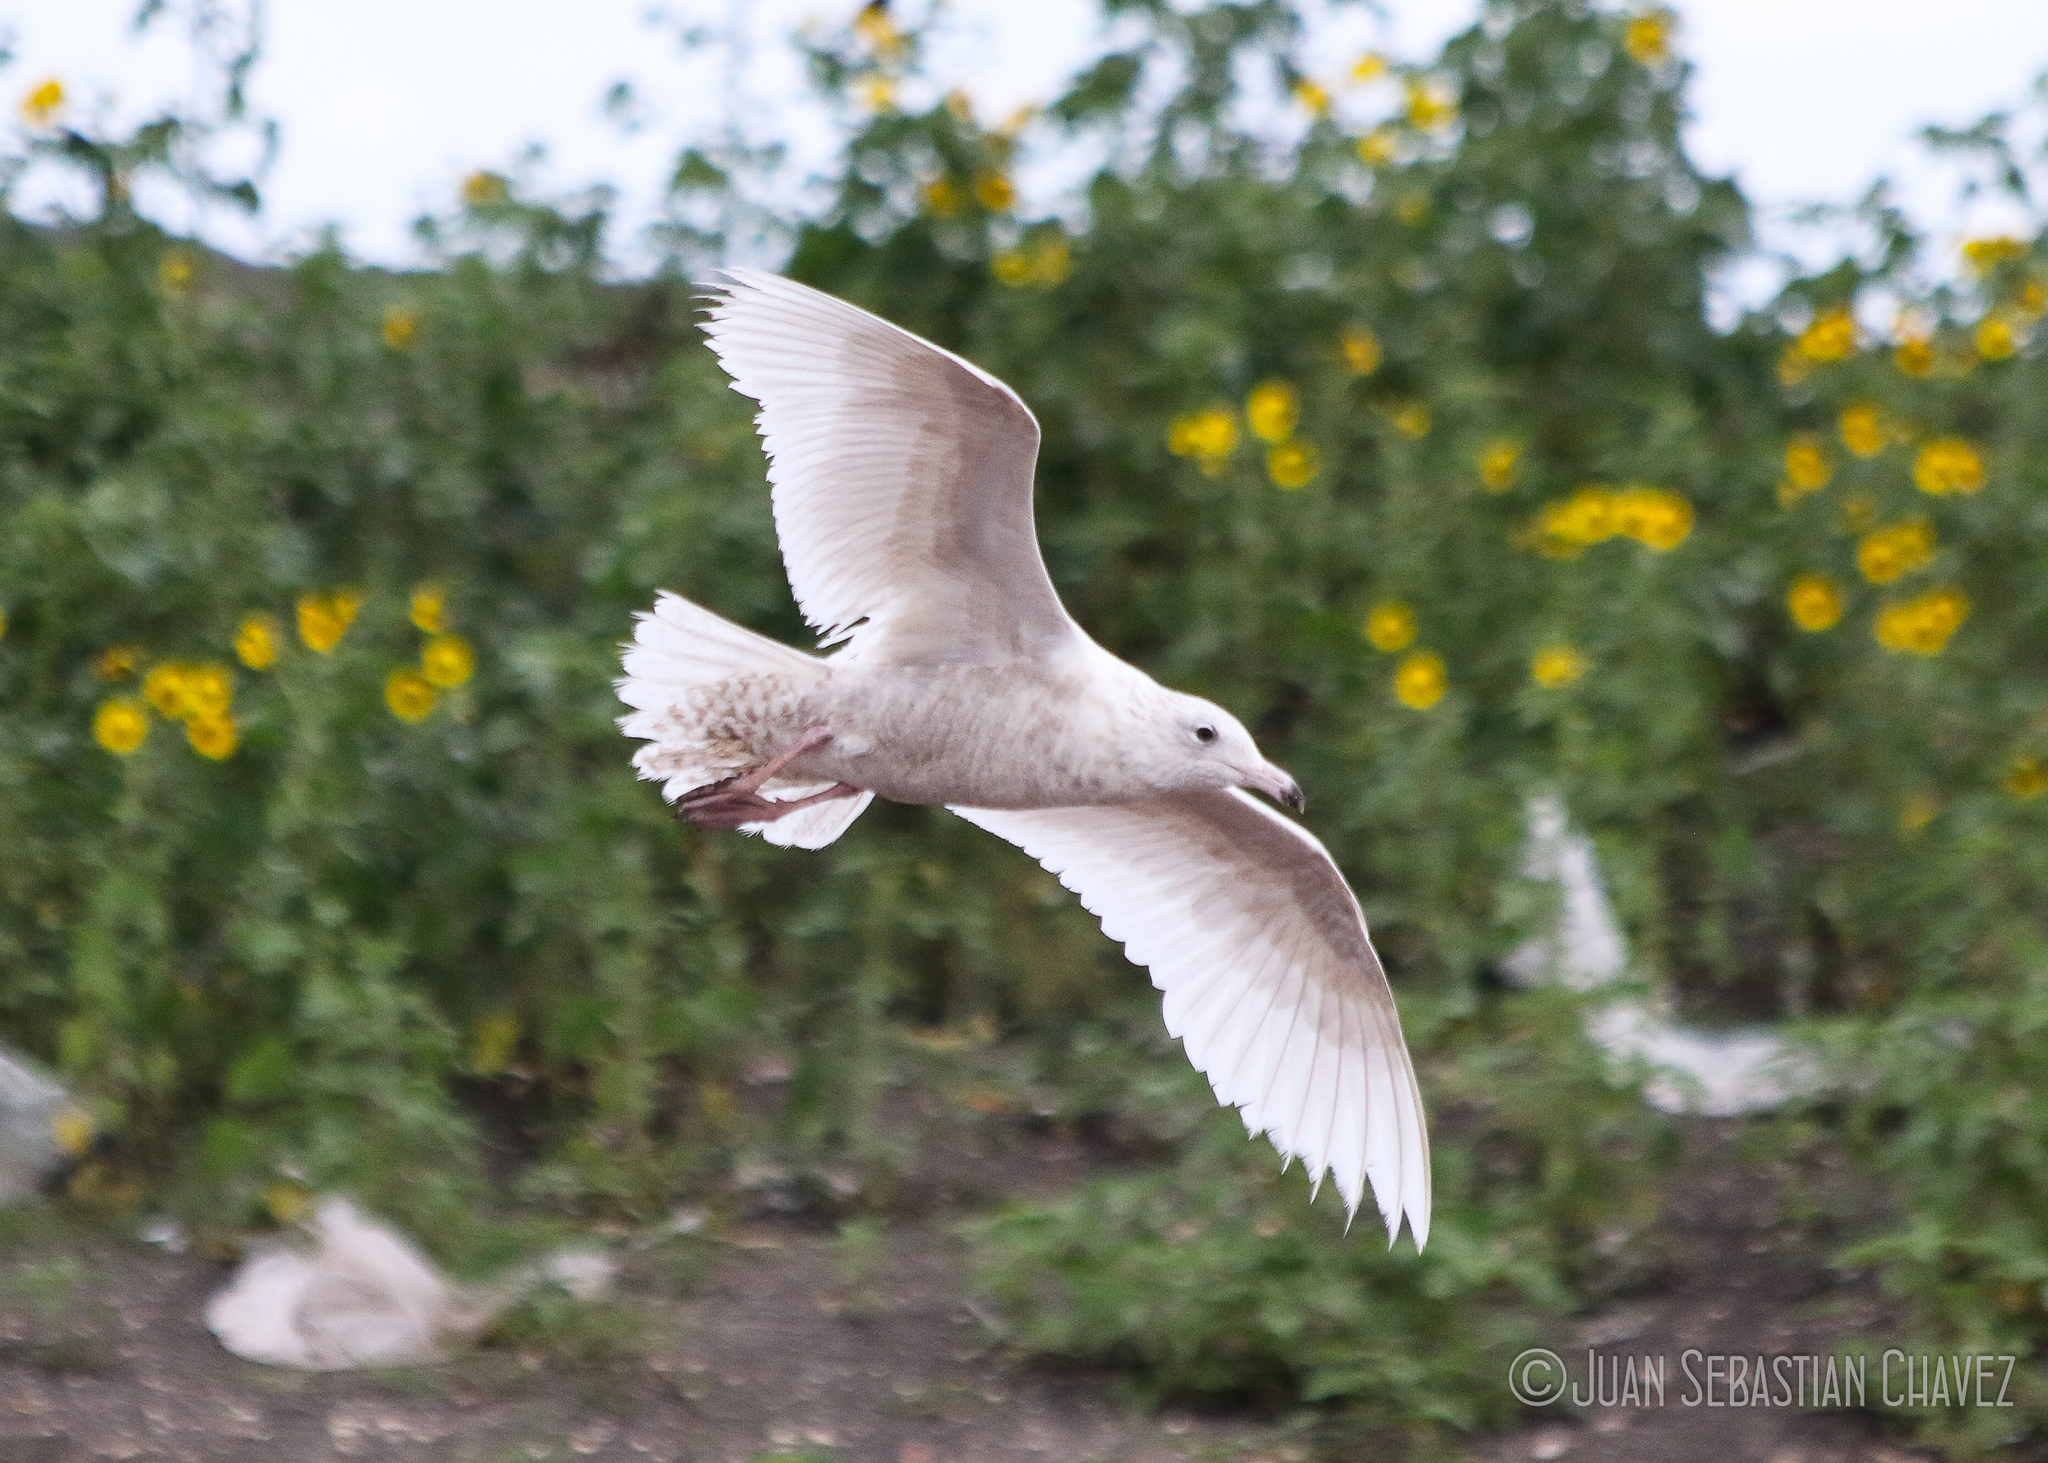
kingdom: Animalia
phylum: Chordata
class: Aves
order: Charadriiformes
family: Laridae
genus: Larus
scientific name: Larus hyperboreus
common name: Glaucous gull
